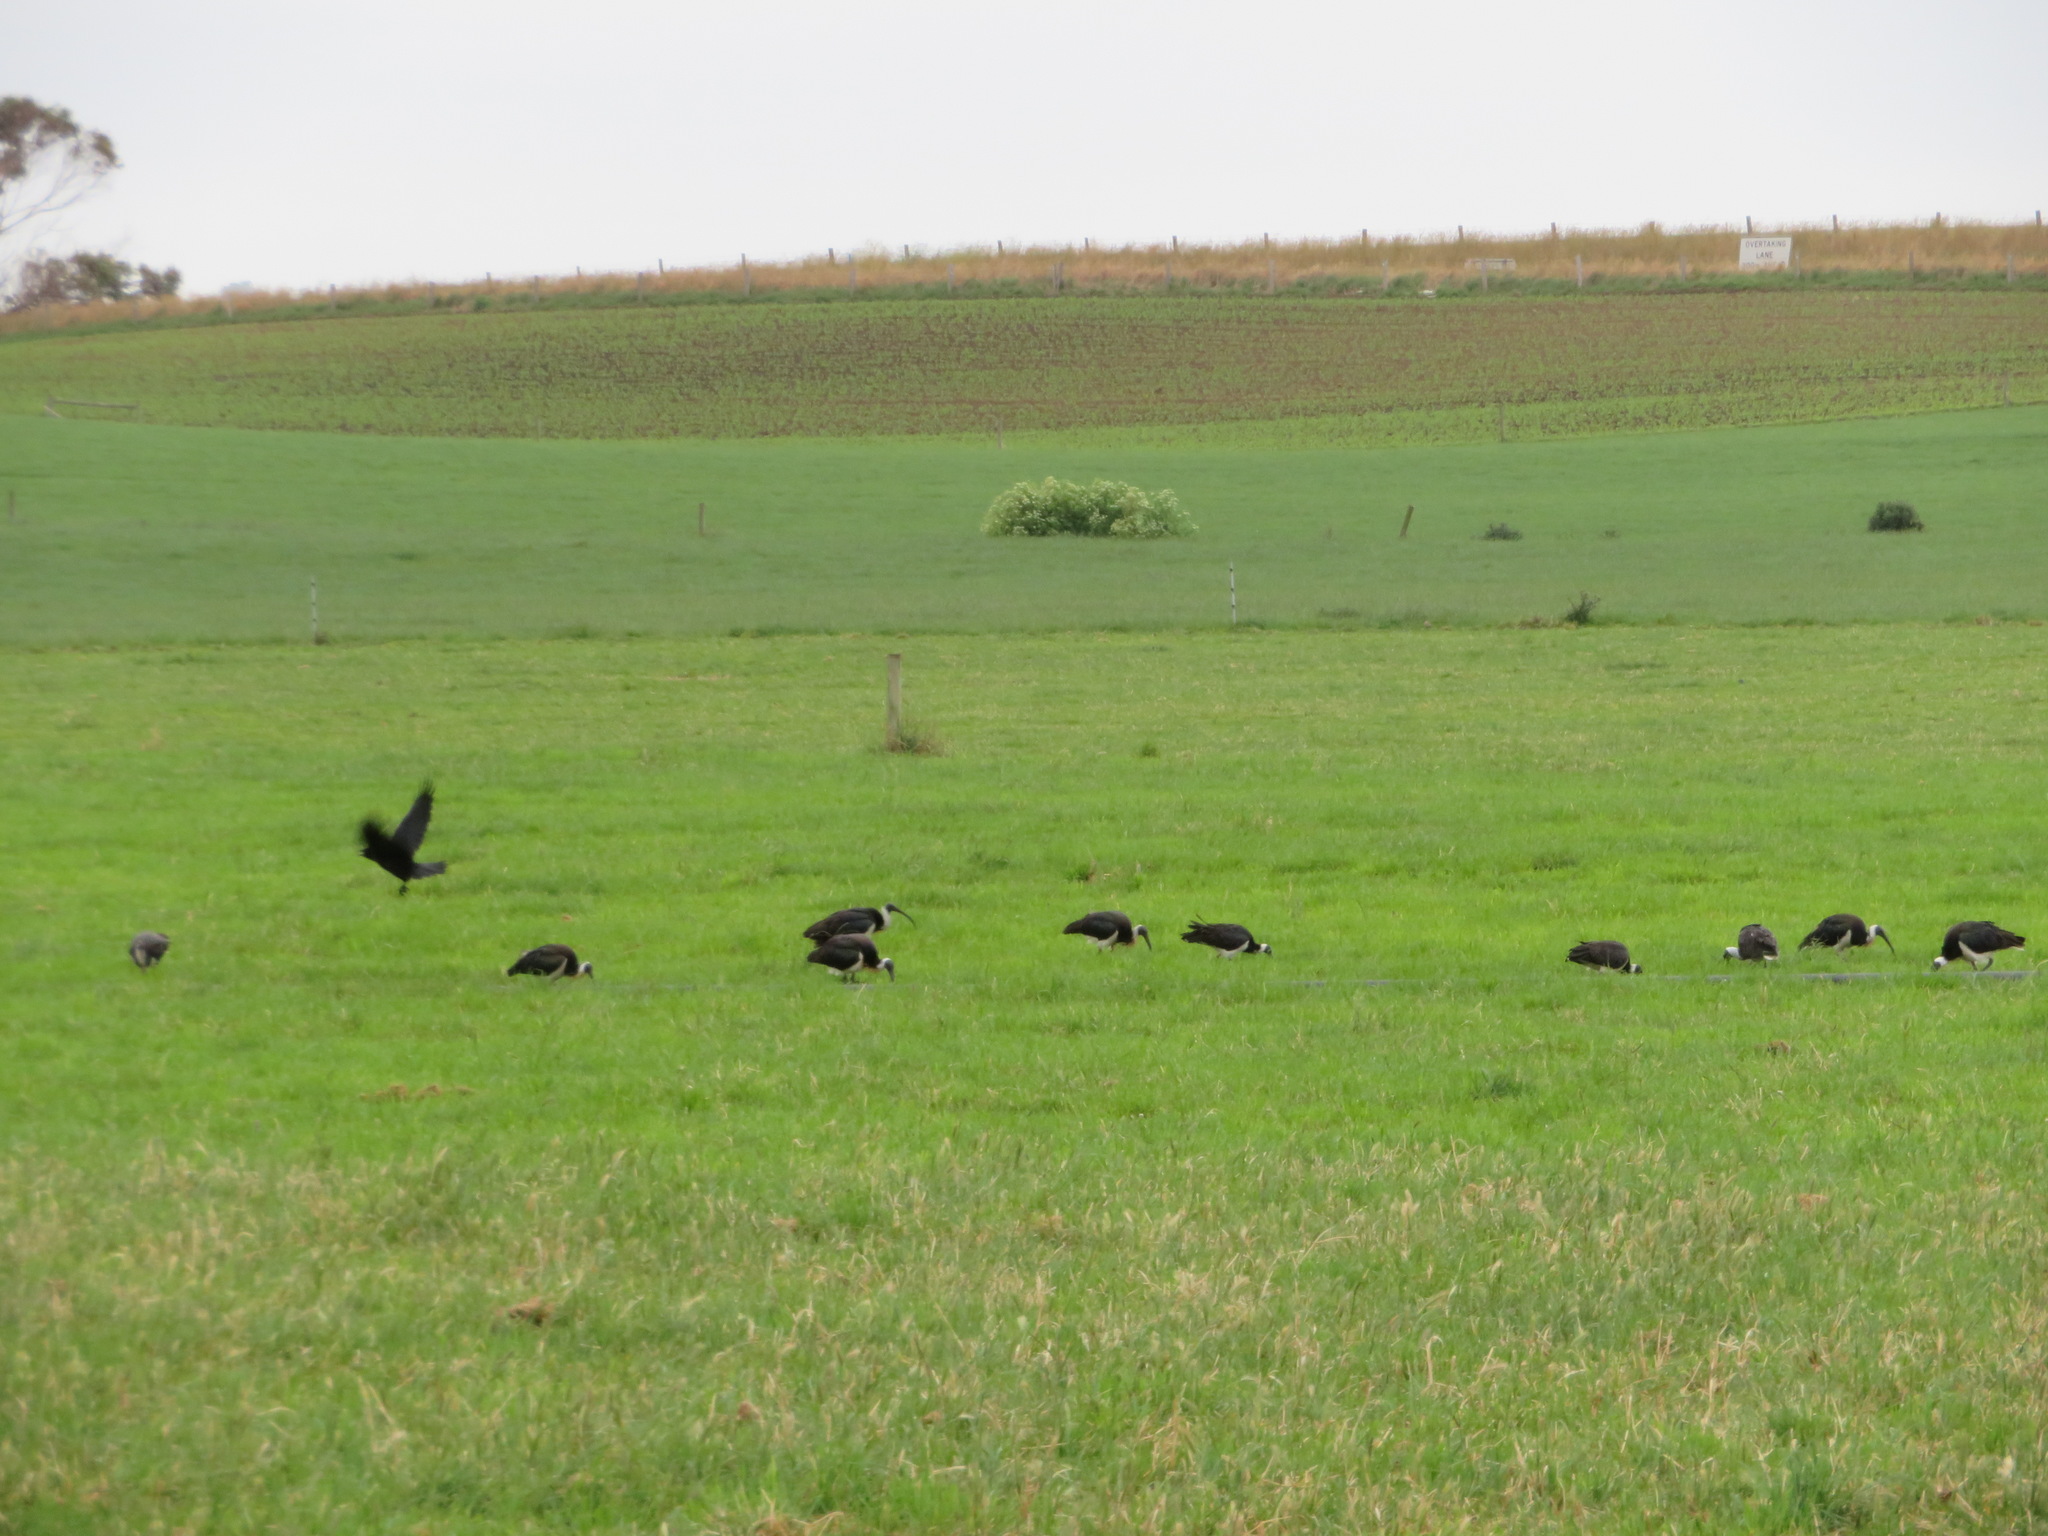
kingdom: Animalia
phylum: Chordata
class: Aves
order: Pelecaniformes
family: Threskiornithidae
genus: Threskiornis
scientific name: Threskiornis spinicollis
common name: Straw-necked ibis
